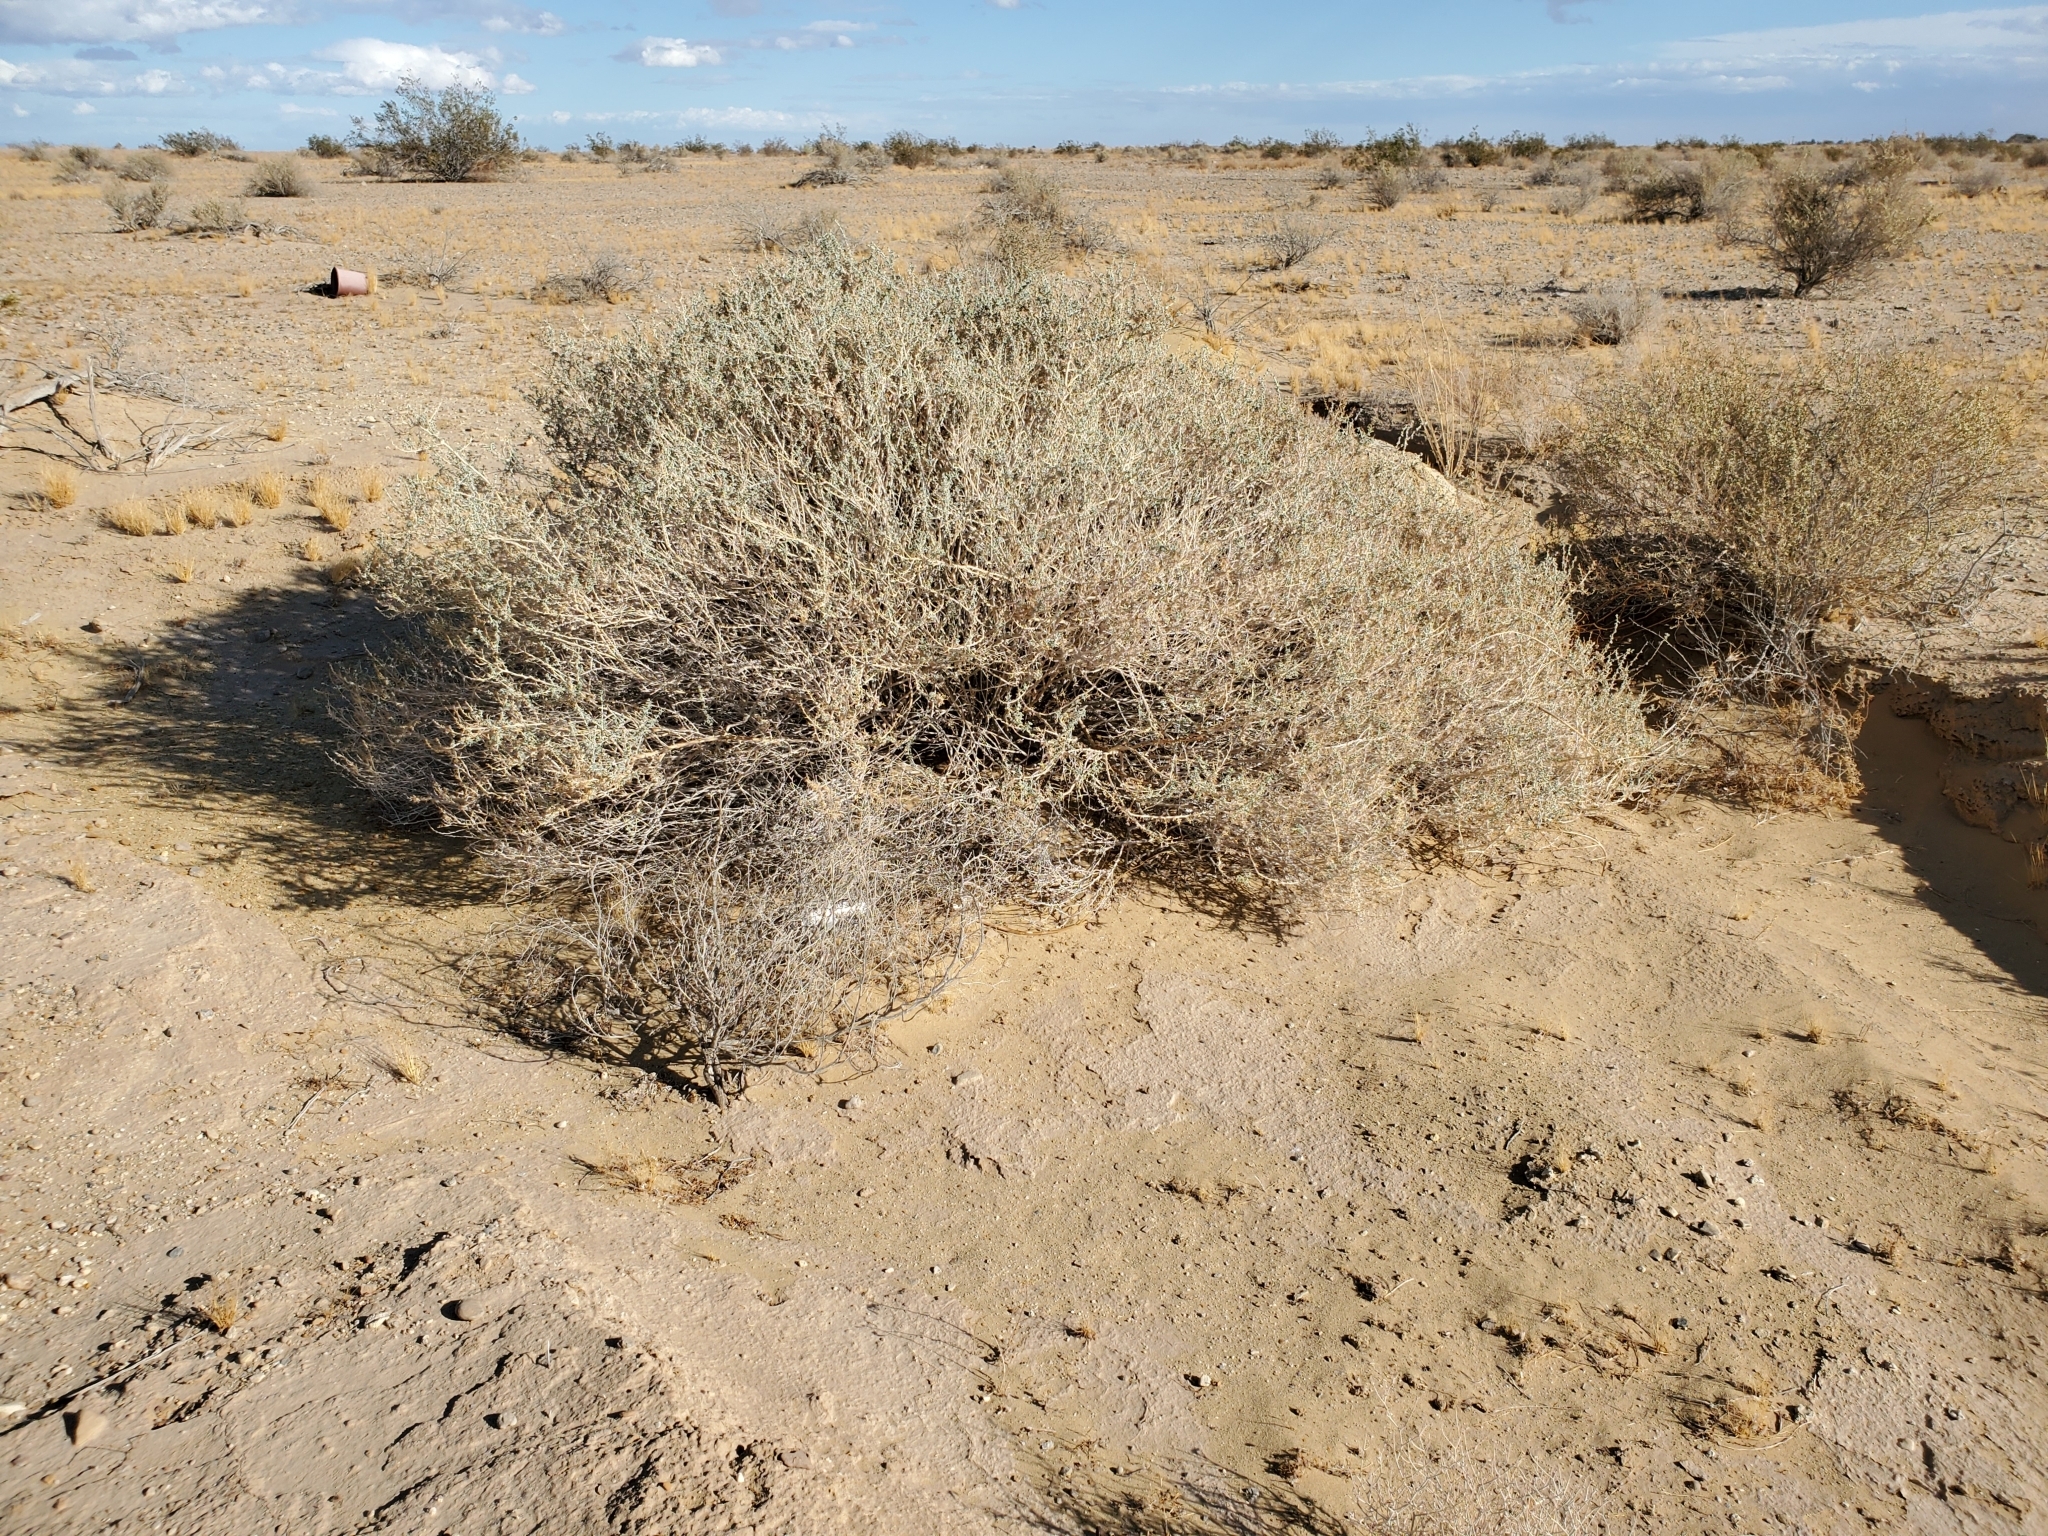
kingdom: Plantae
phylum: Tracheophyta
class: Magnoliopsida
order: Asterales
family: Asteraceae
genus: Ambrosia
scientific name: Ambrosia dumosa
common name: Bur-sage
